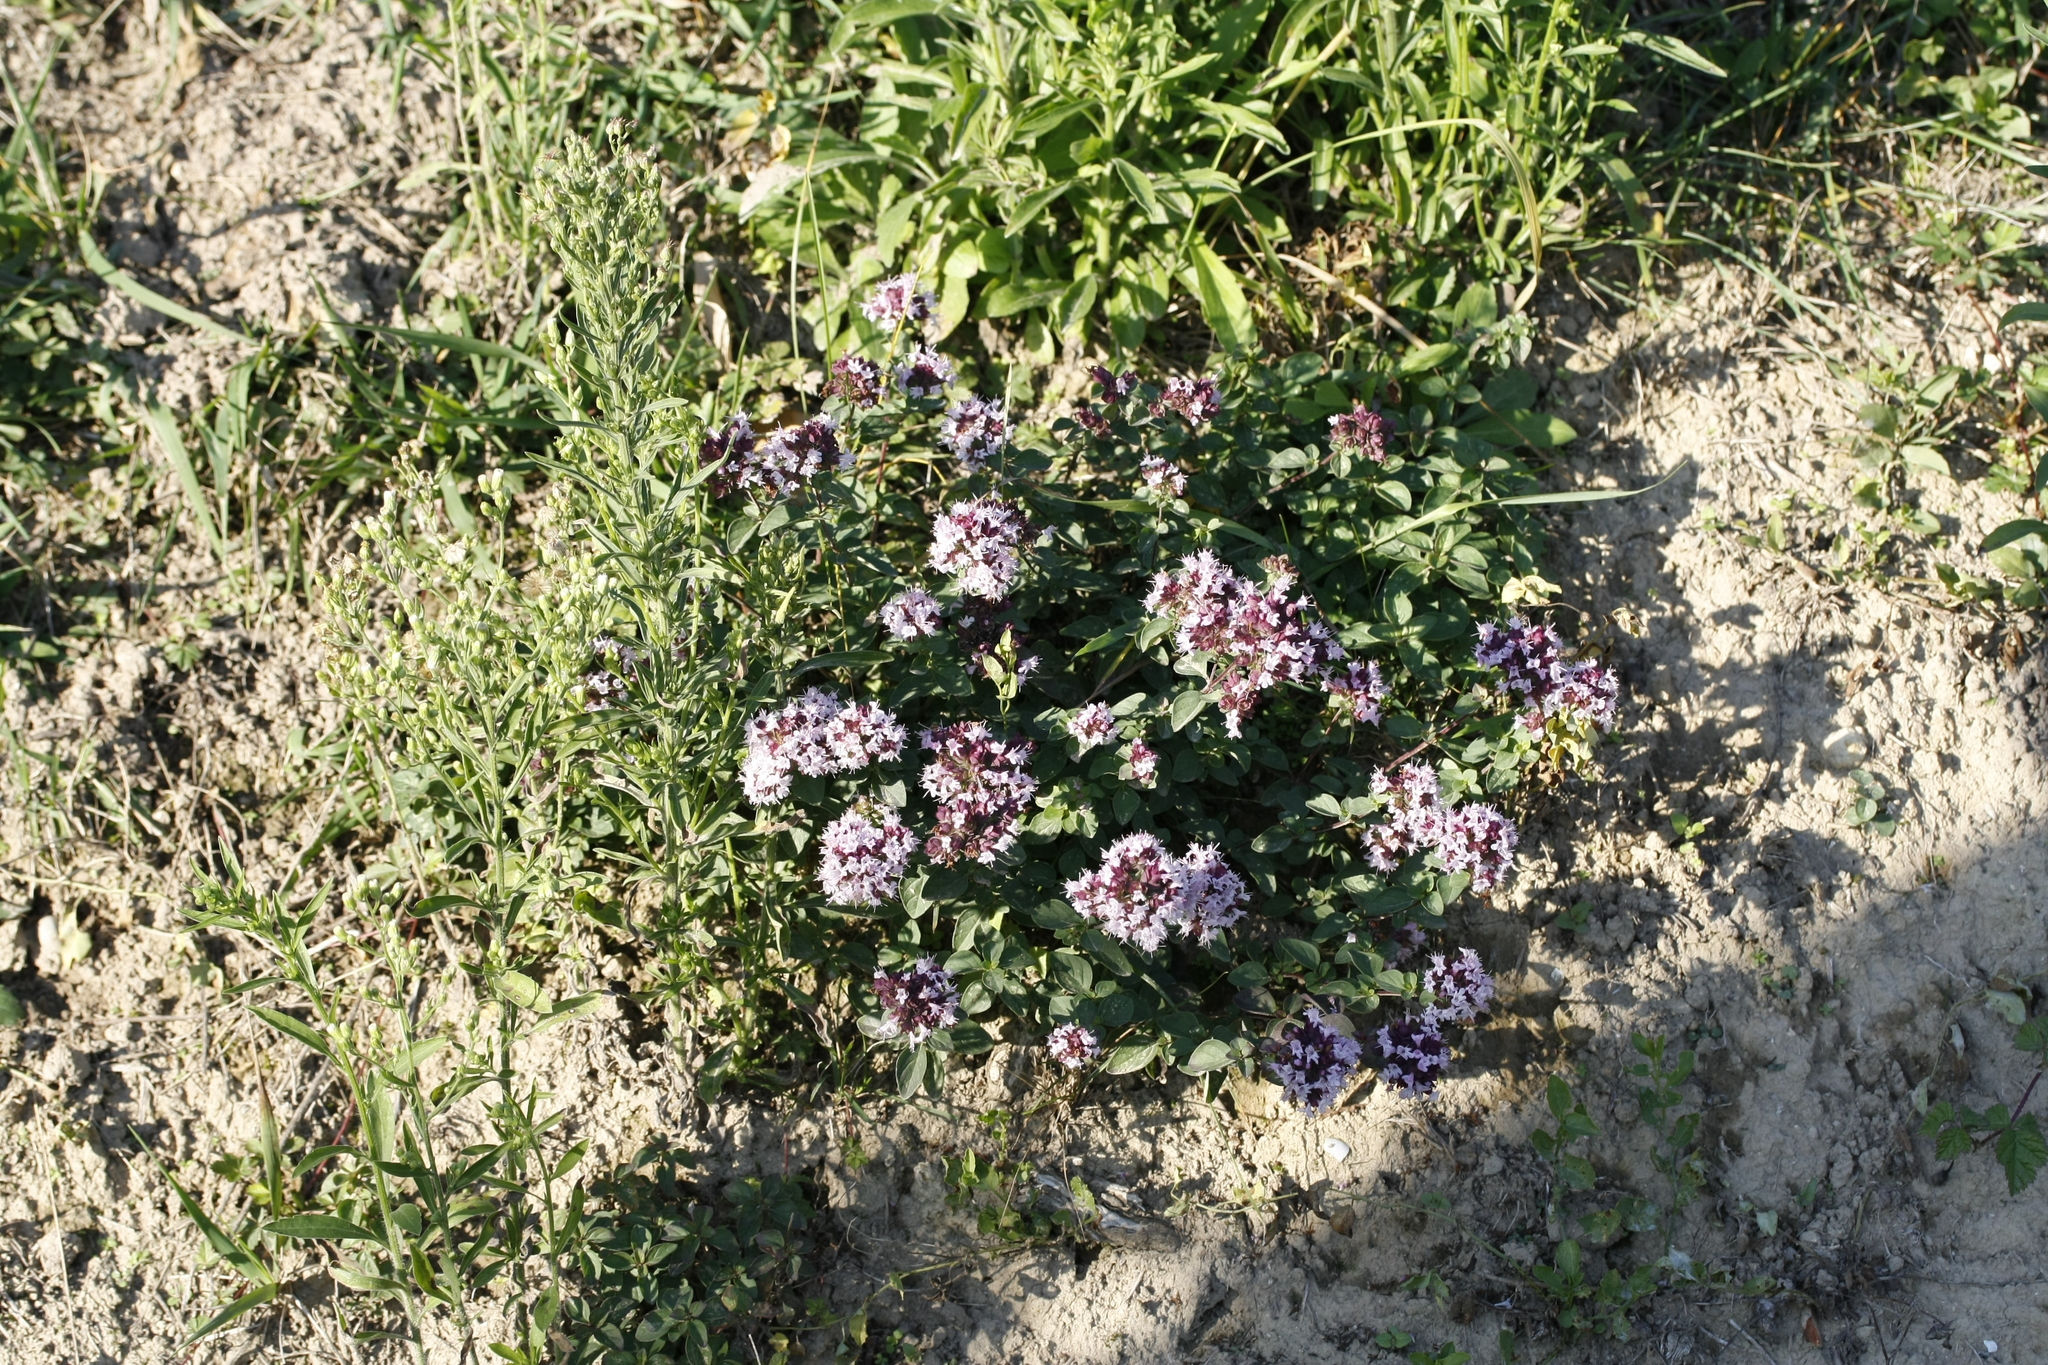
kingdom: Plantae
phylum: Tracheophyta
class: Magnoliopsida
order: Lamiales
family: Lamiaceae
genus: Origanum
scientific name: Origanum vulgare
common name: Wild marjoram
